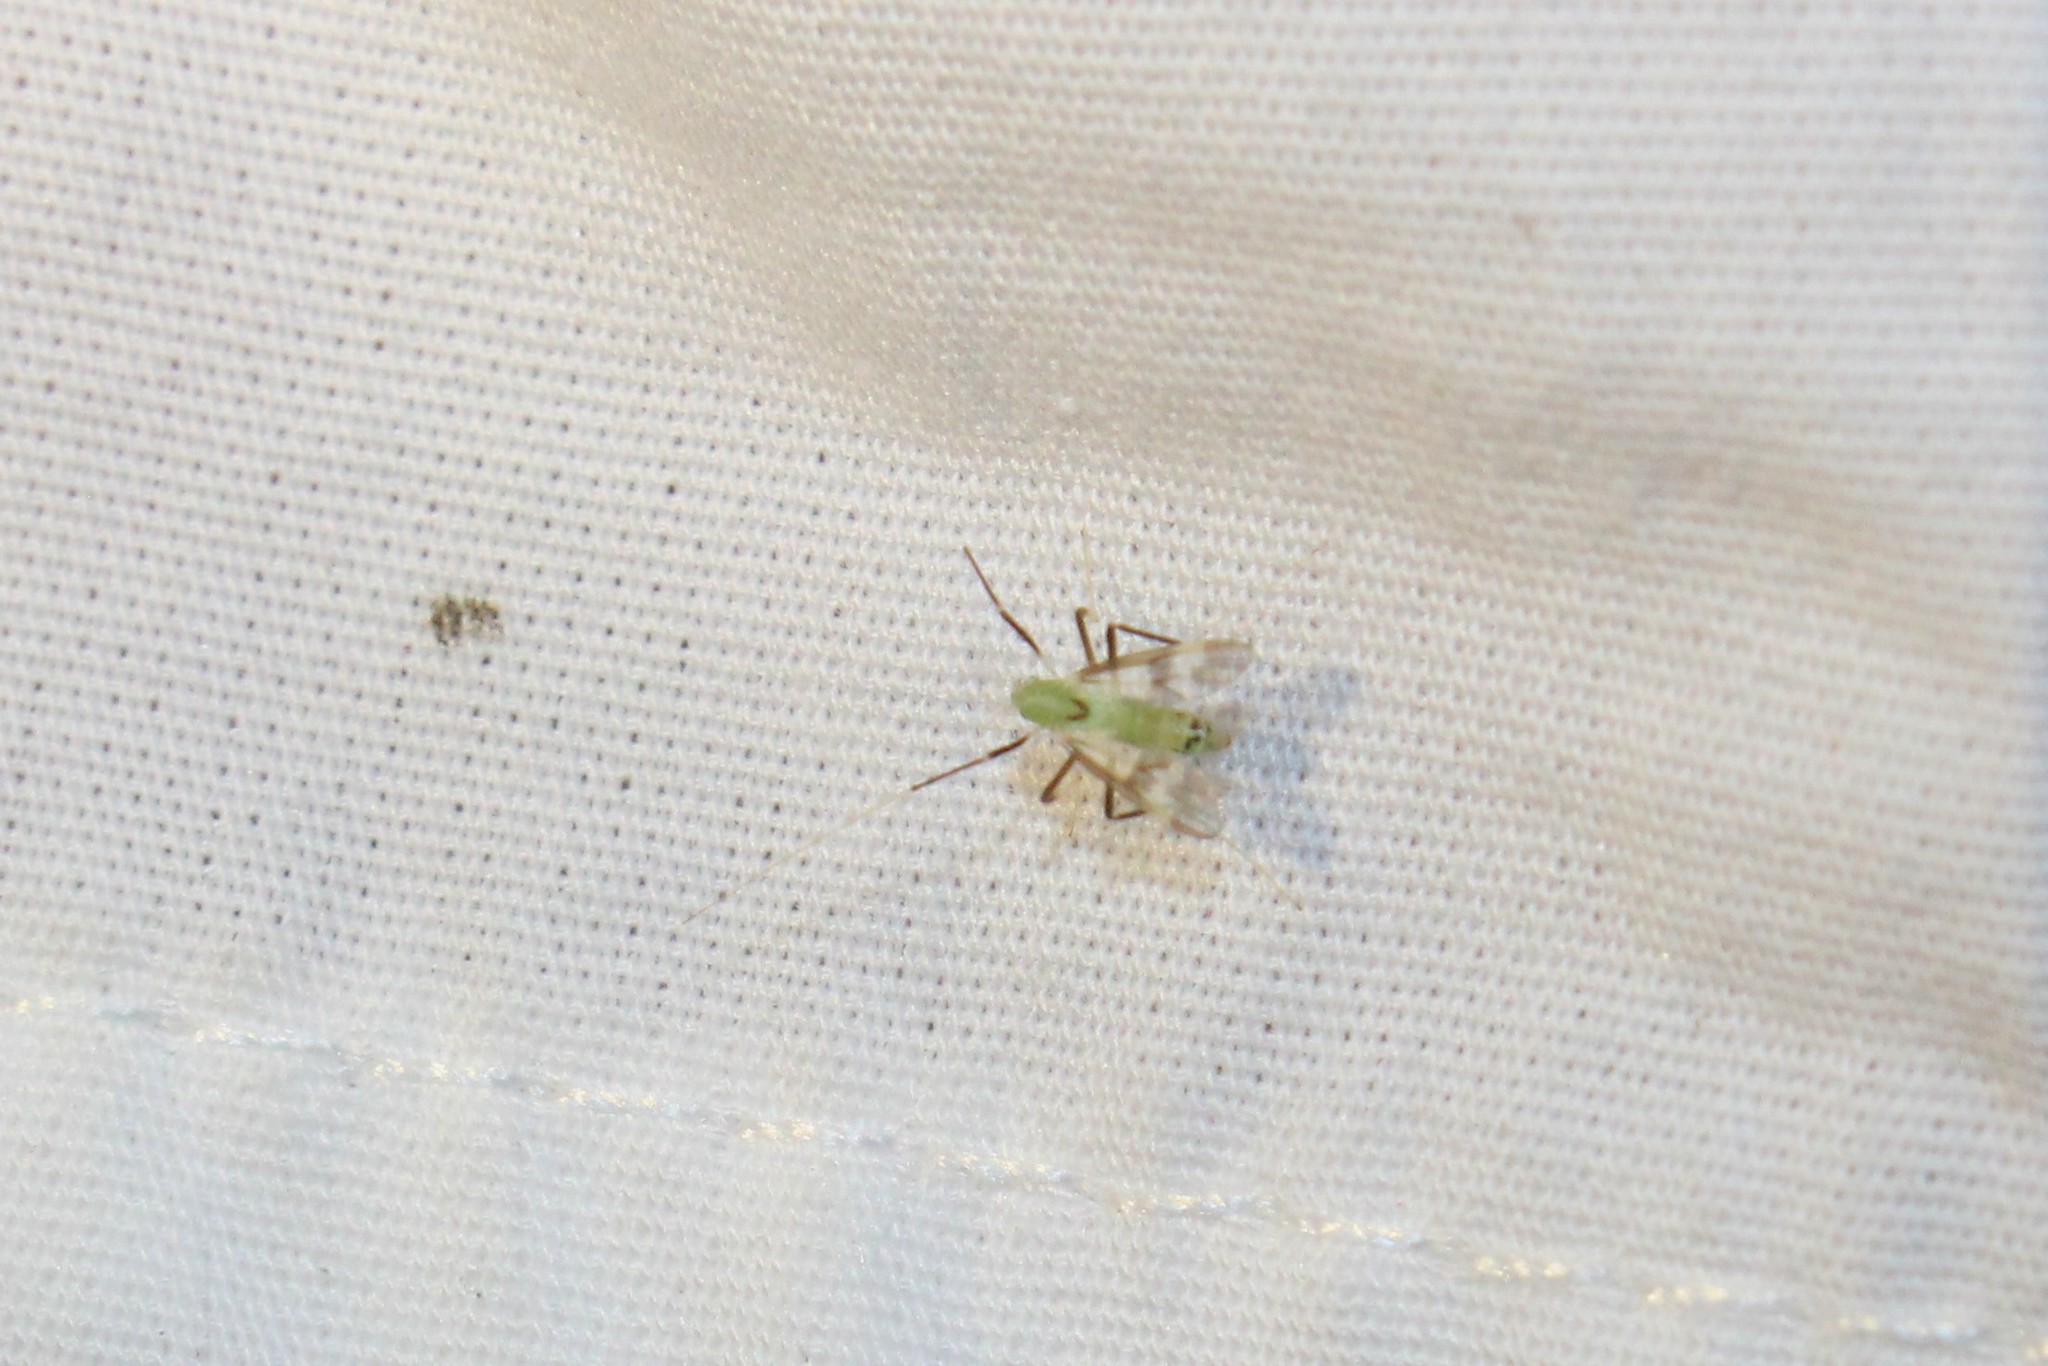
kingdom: Animalia
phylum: Arthropoda
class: Insecta
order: Diptera
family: Chironomidae
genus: Stenochironomus
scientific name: Stenochironomus hilaris
